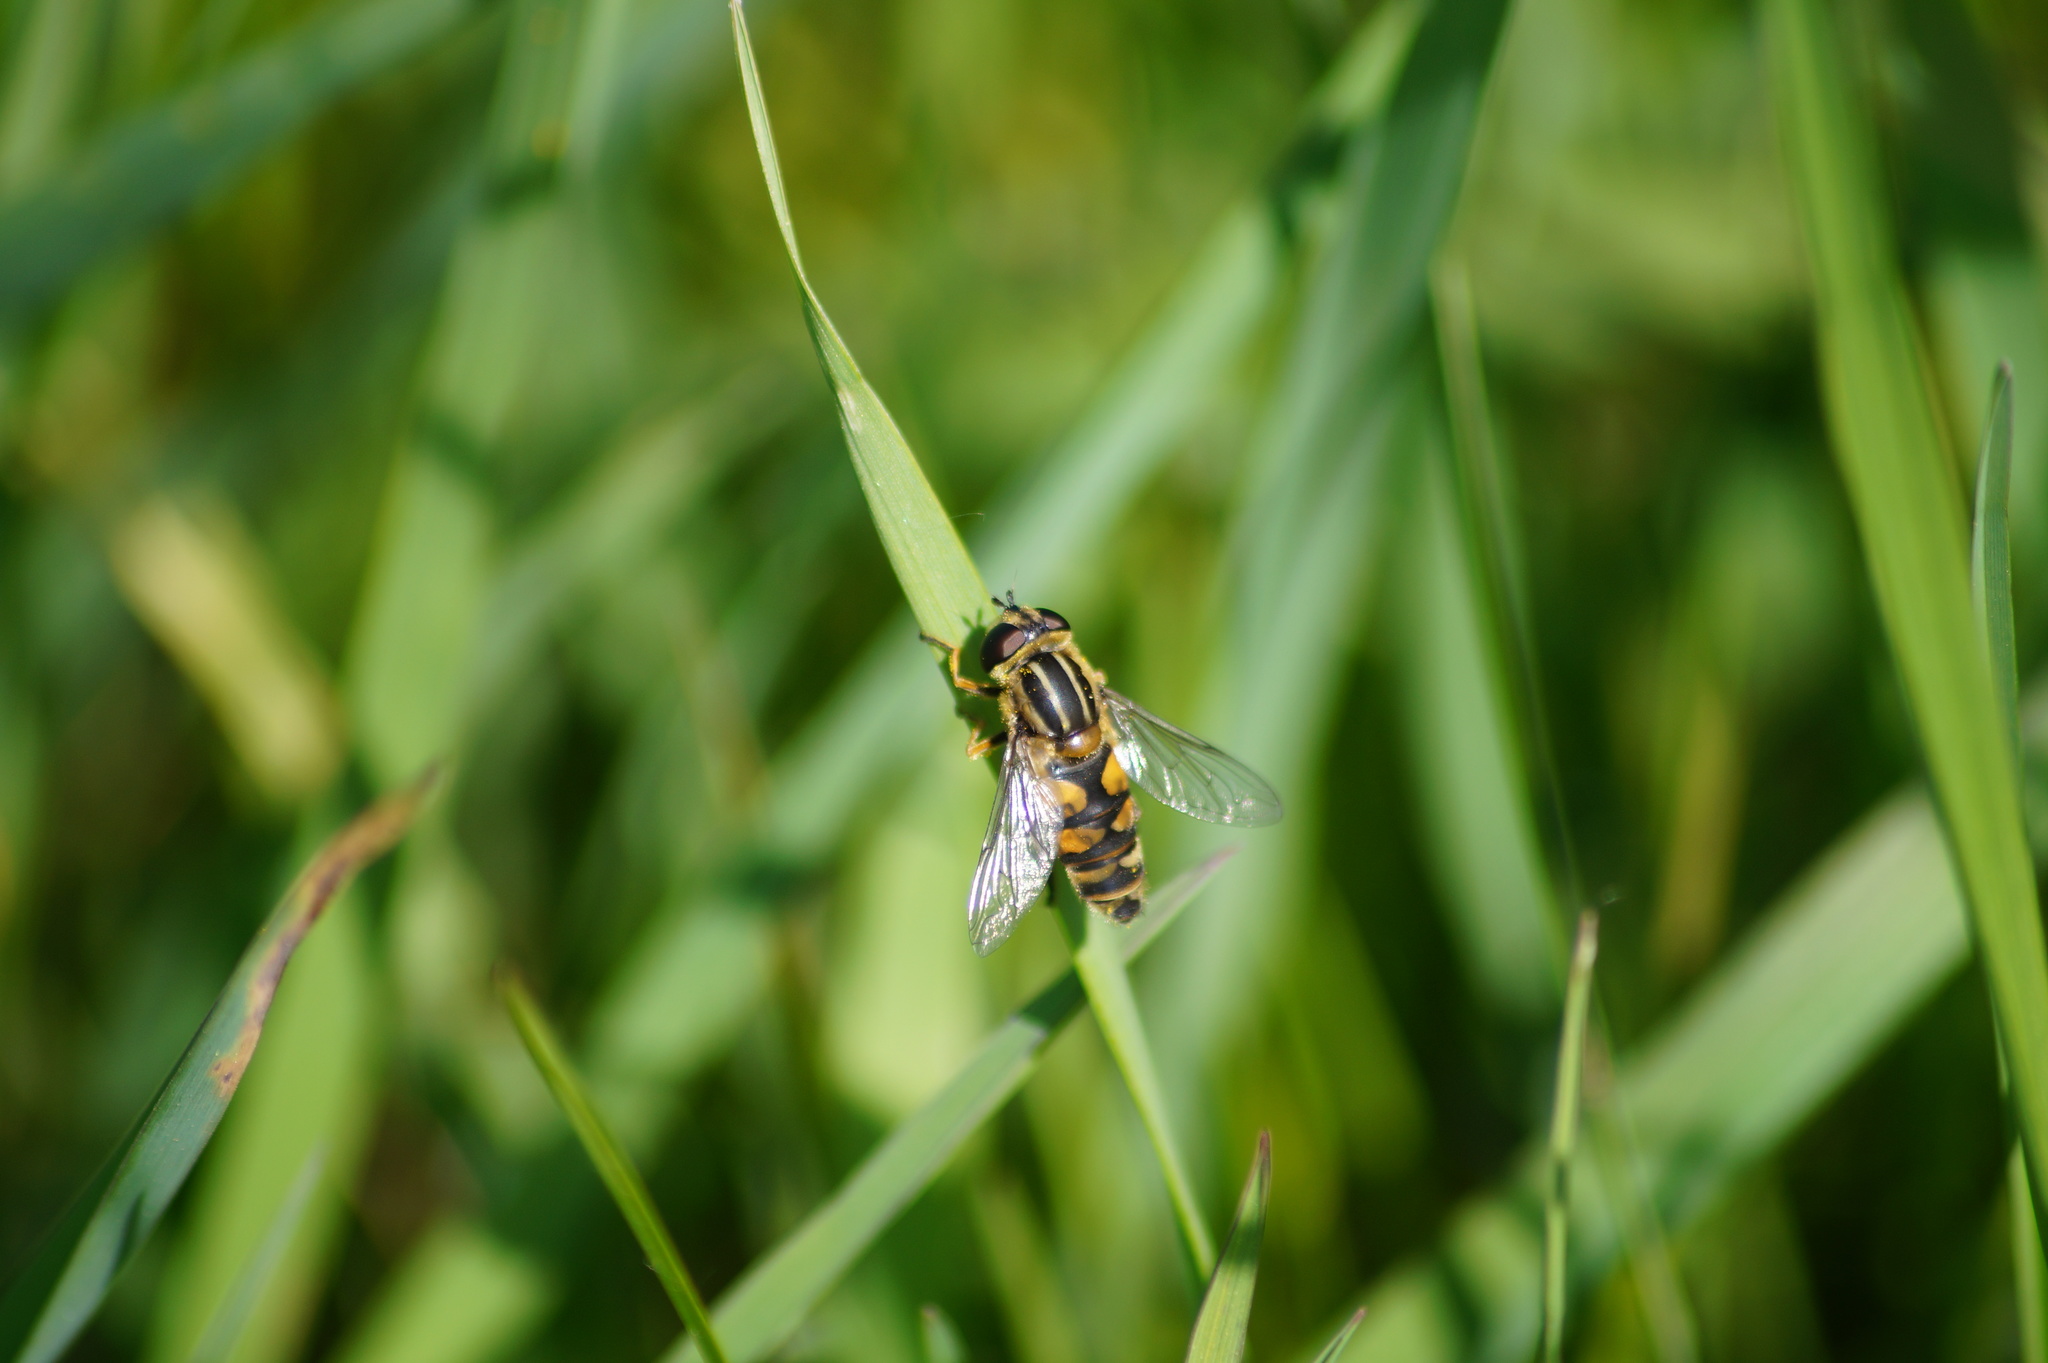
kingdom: Animalia
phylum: Arthropoda
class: Insecta
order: Diptera
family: Syrphidae
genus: Helophilus
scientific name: Helophilus hybridus
